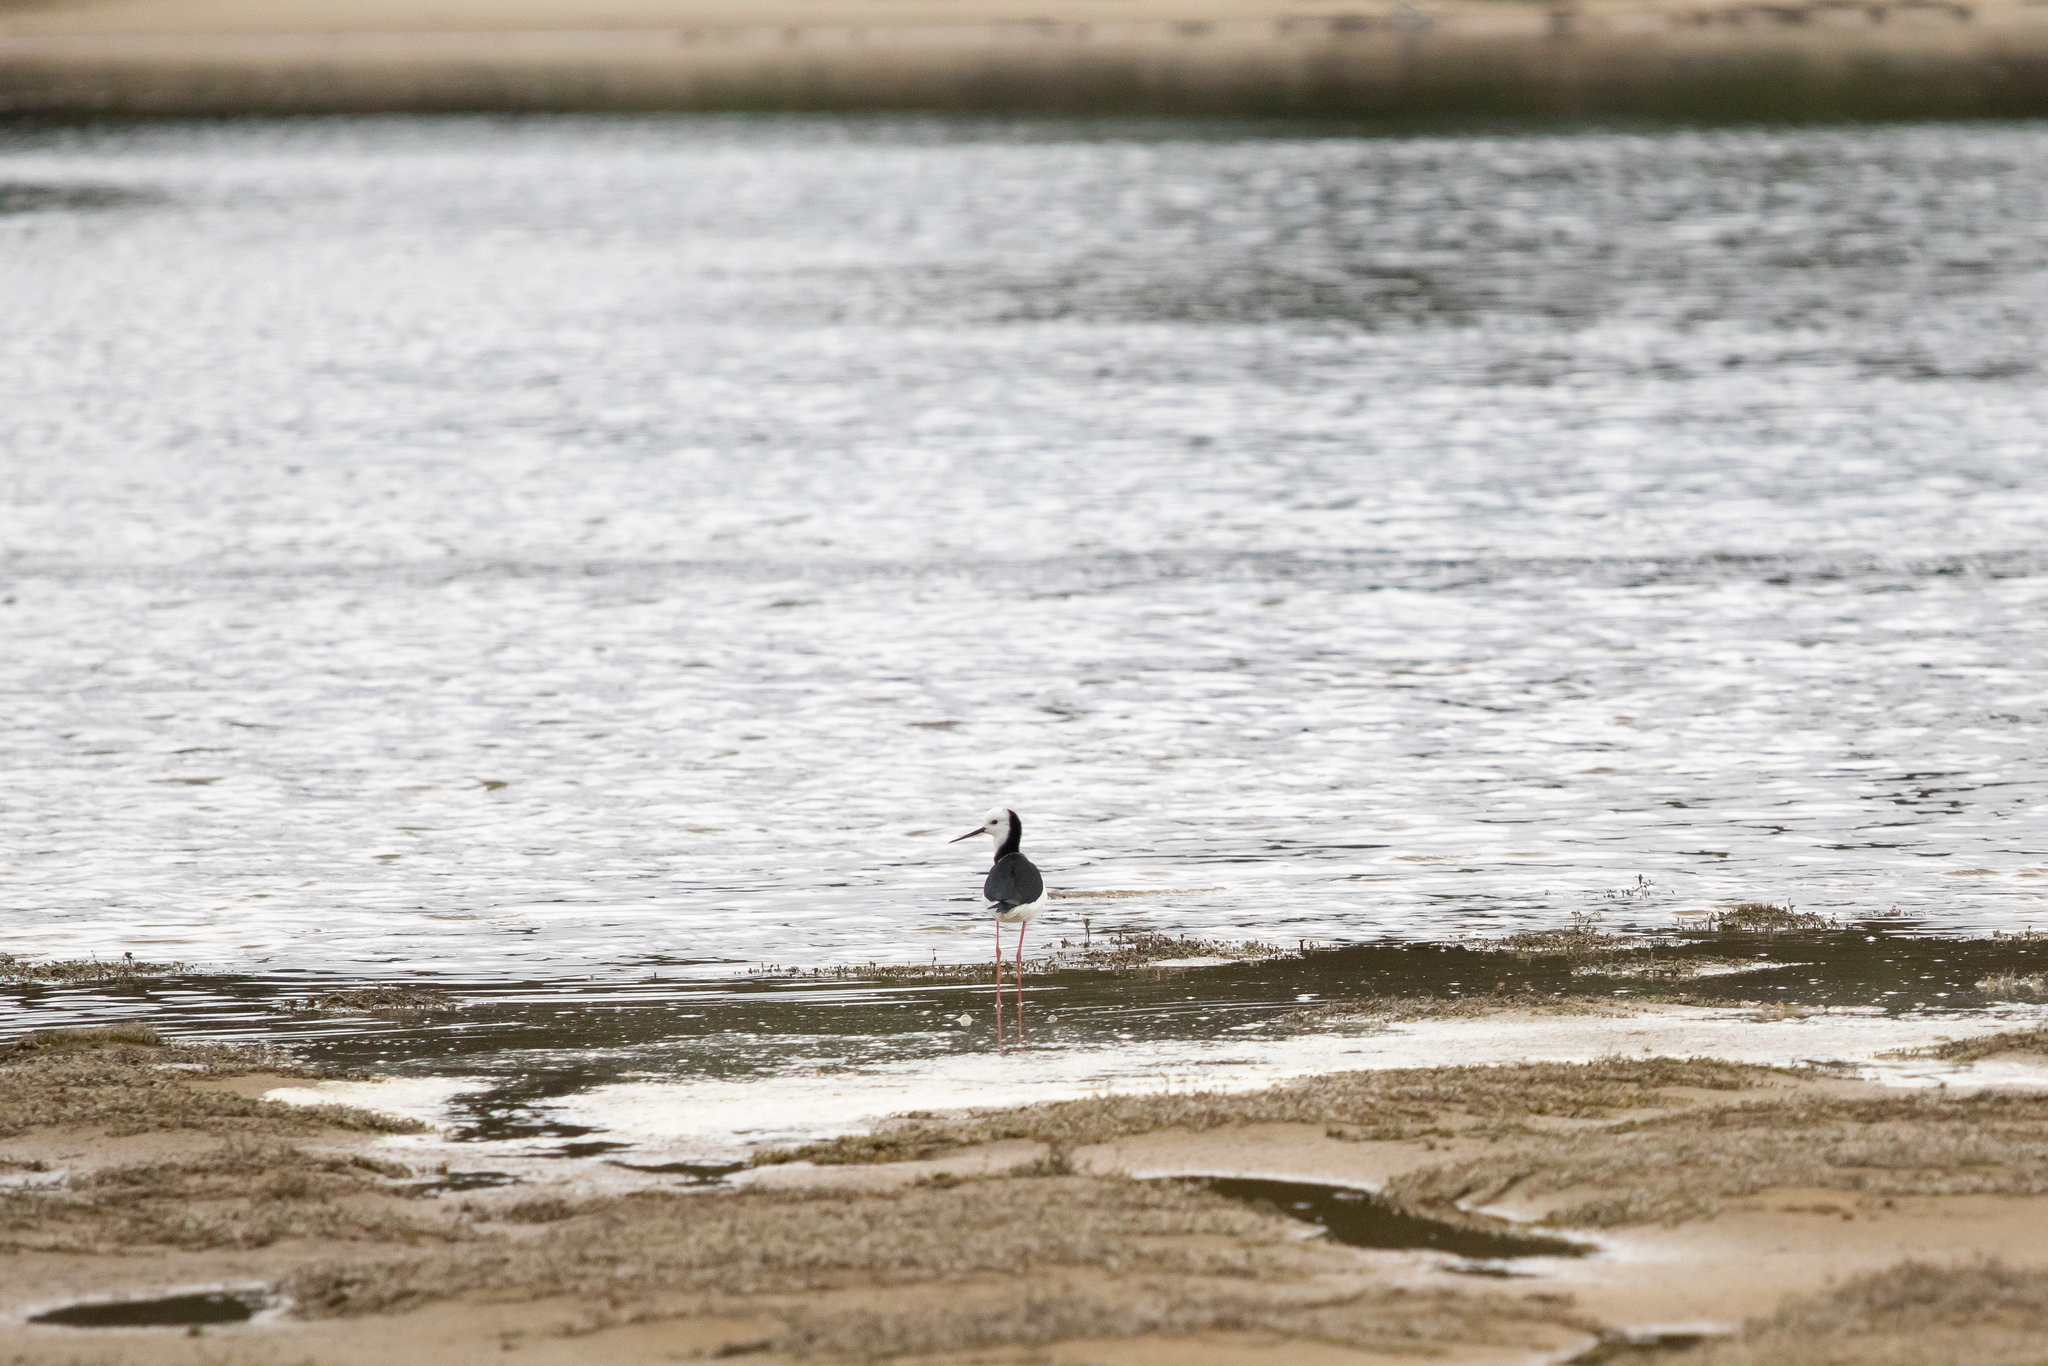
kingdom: Animalia
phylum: Chordata
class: Aves
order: Charadriiformes
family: Recurvirostridae
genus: Himantopus
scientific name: Himantopus leucocephalus
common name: White-headed stilt
